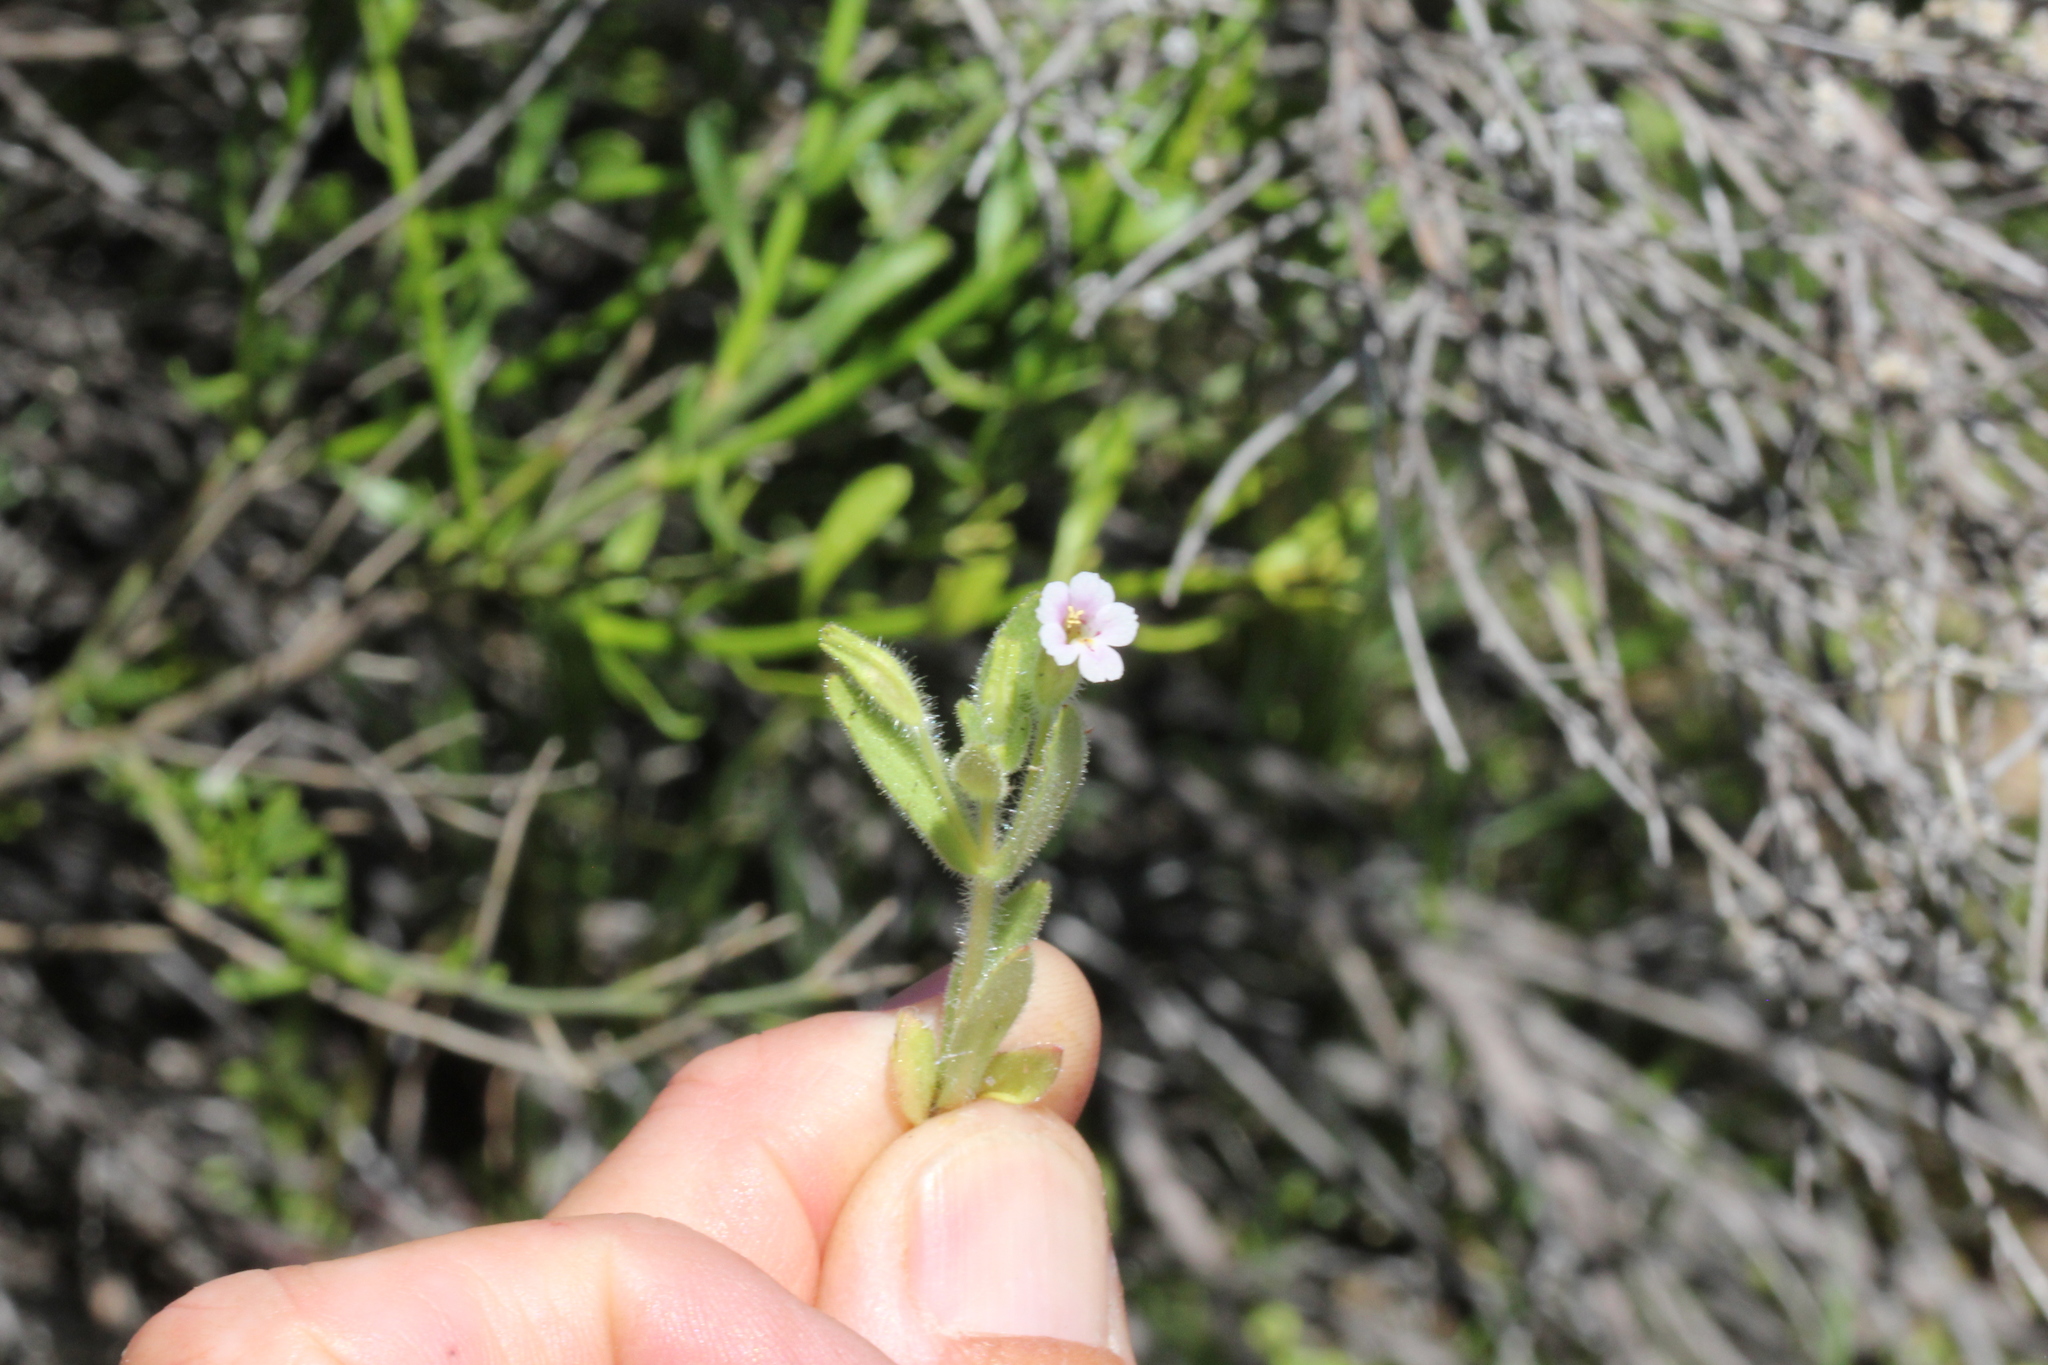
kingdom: Plantae
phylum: Tracheophyta
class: Magnoliopsida
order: Lamiales
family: Phrymaceae
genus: Erythranthe
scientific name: Erythranthe parishii
